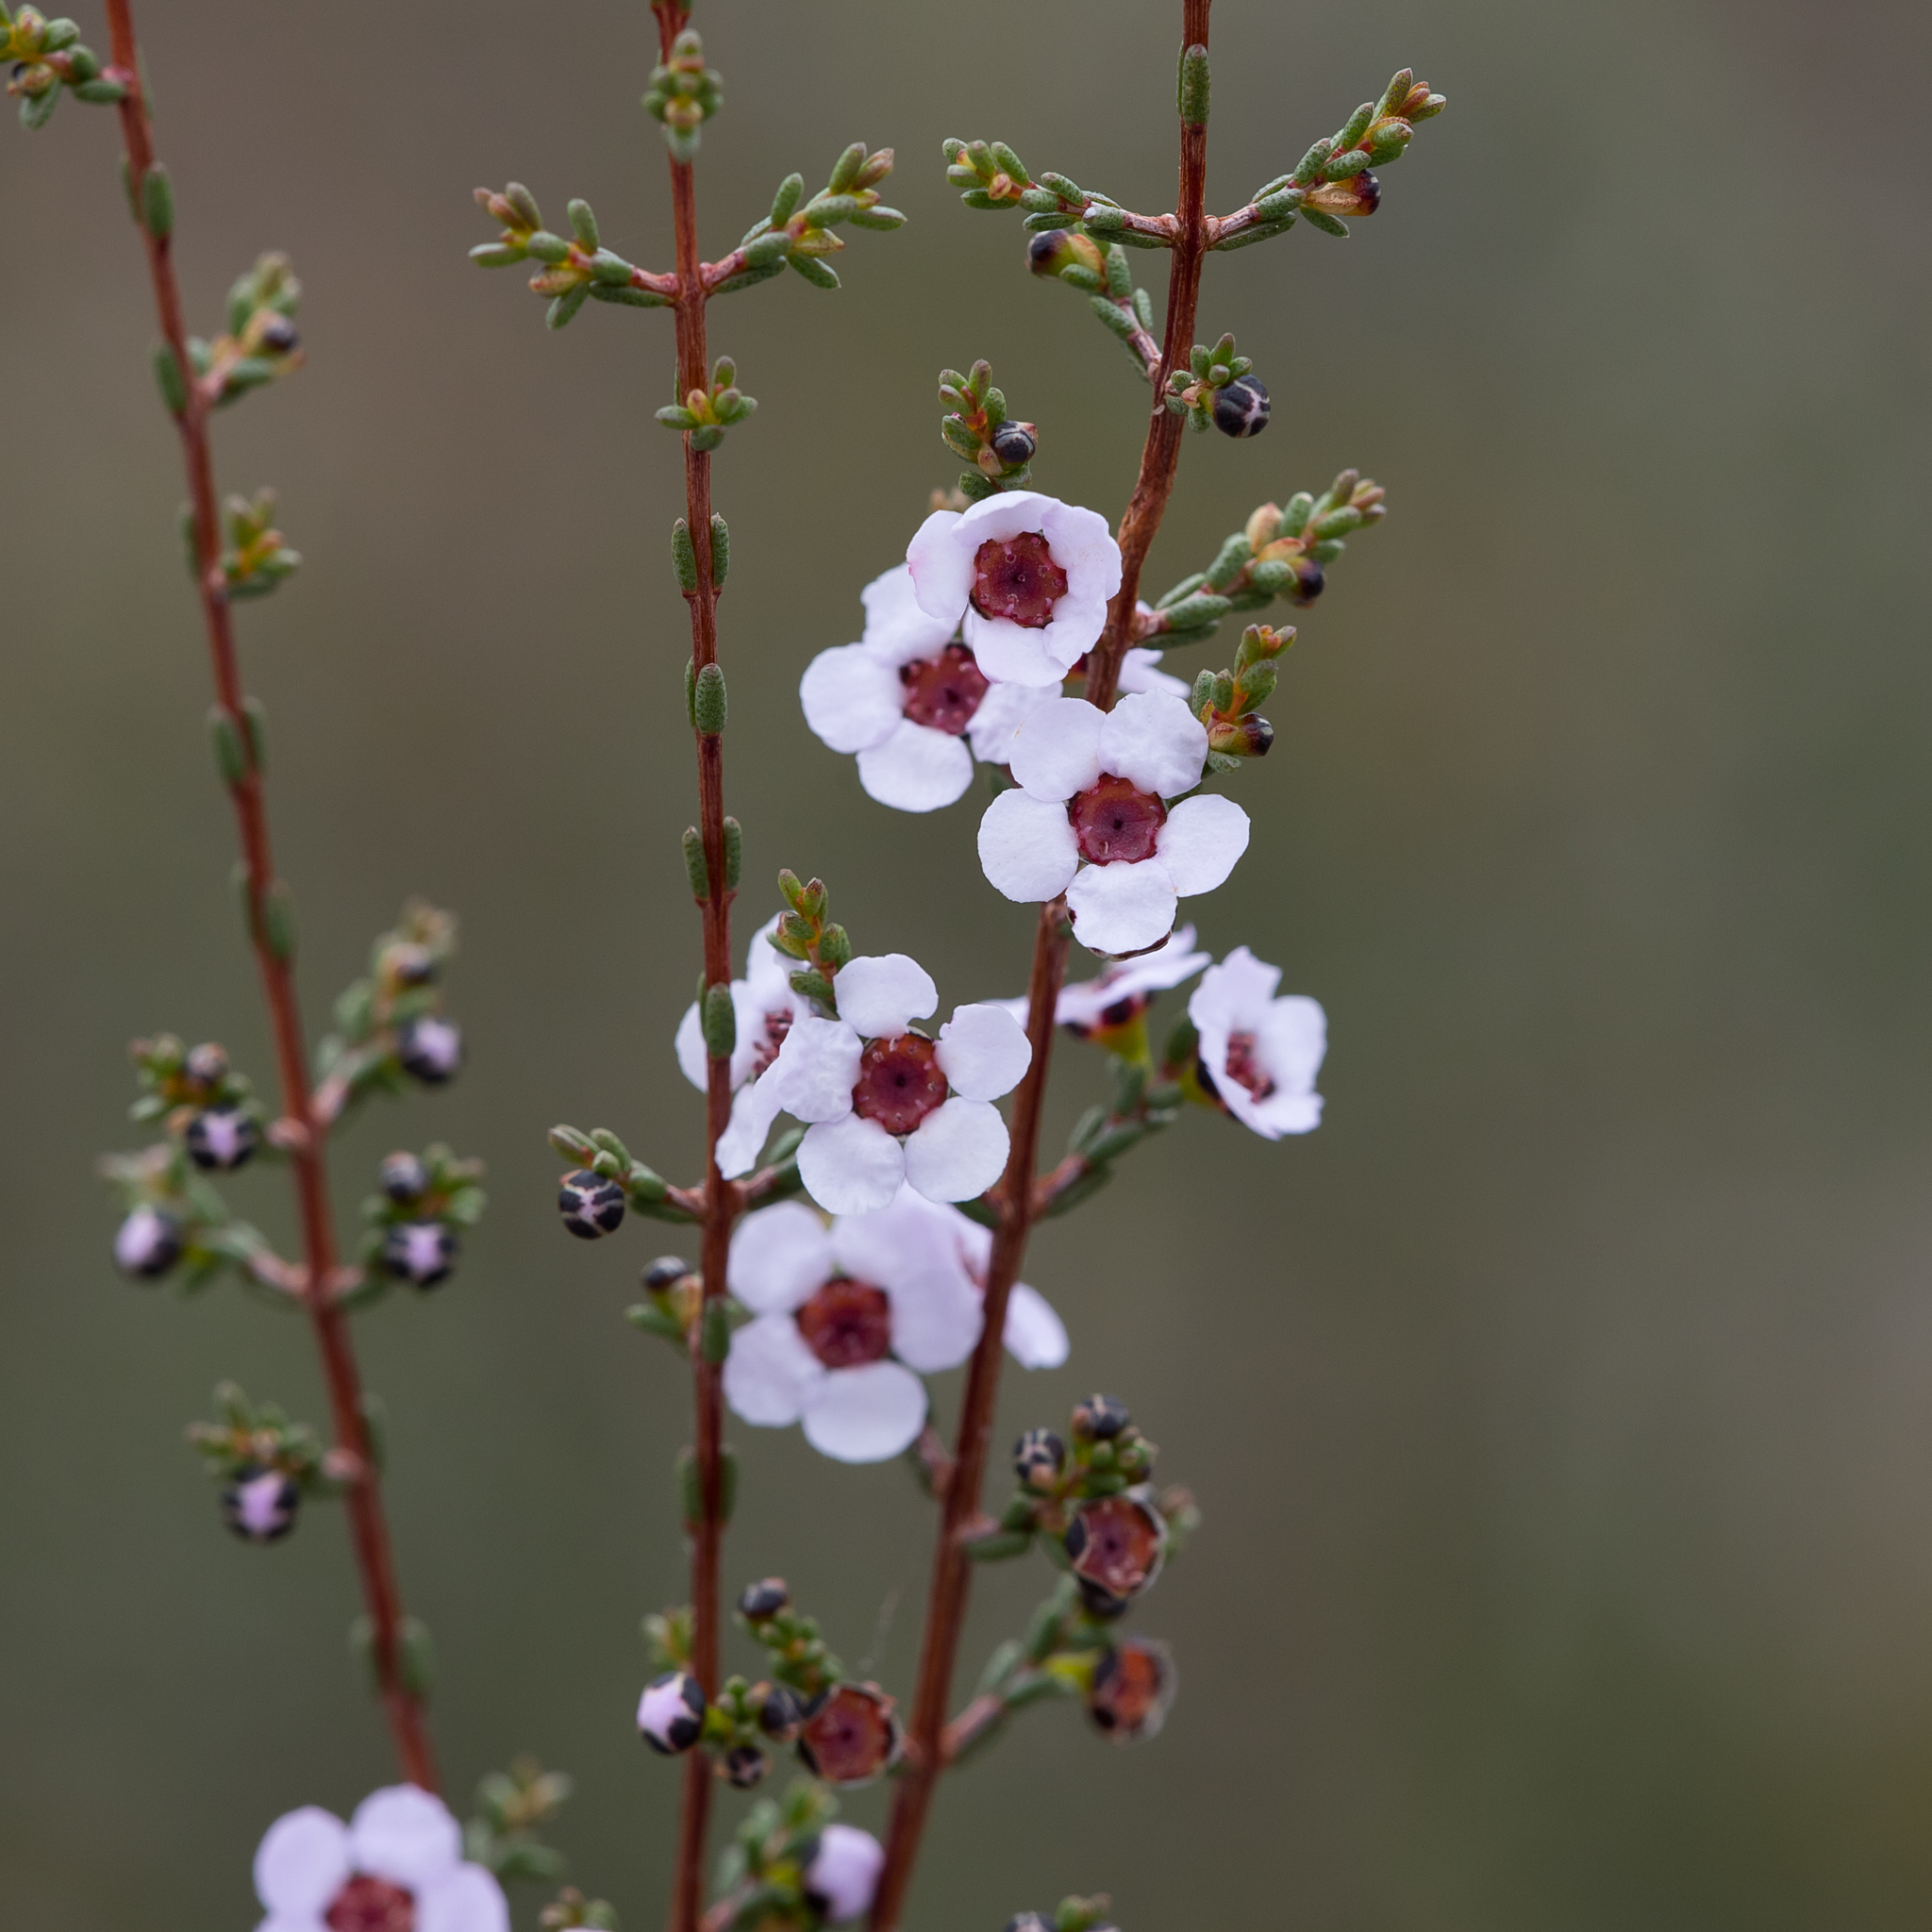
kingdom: Plantae
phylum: Tracheophyta
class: Magnoliopsida
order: Myrtales
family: Myrtaceae
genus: Rinzia
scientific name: Rinzia orientalis
